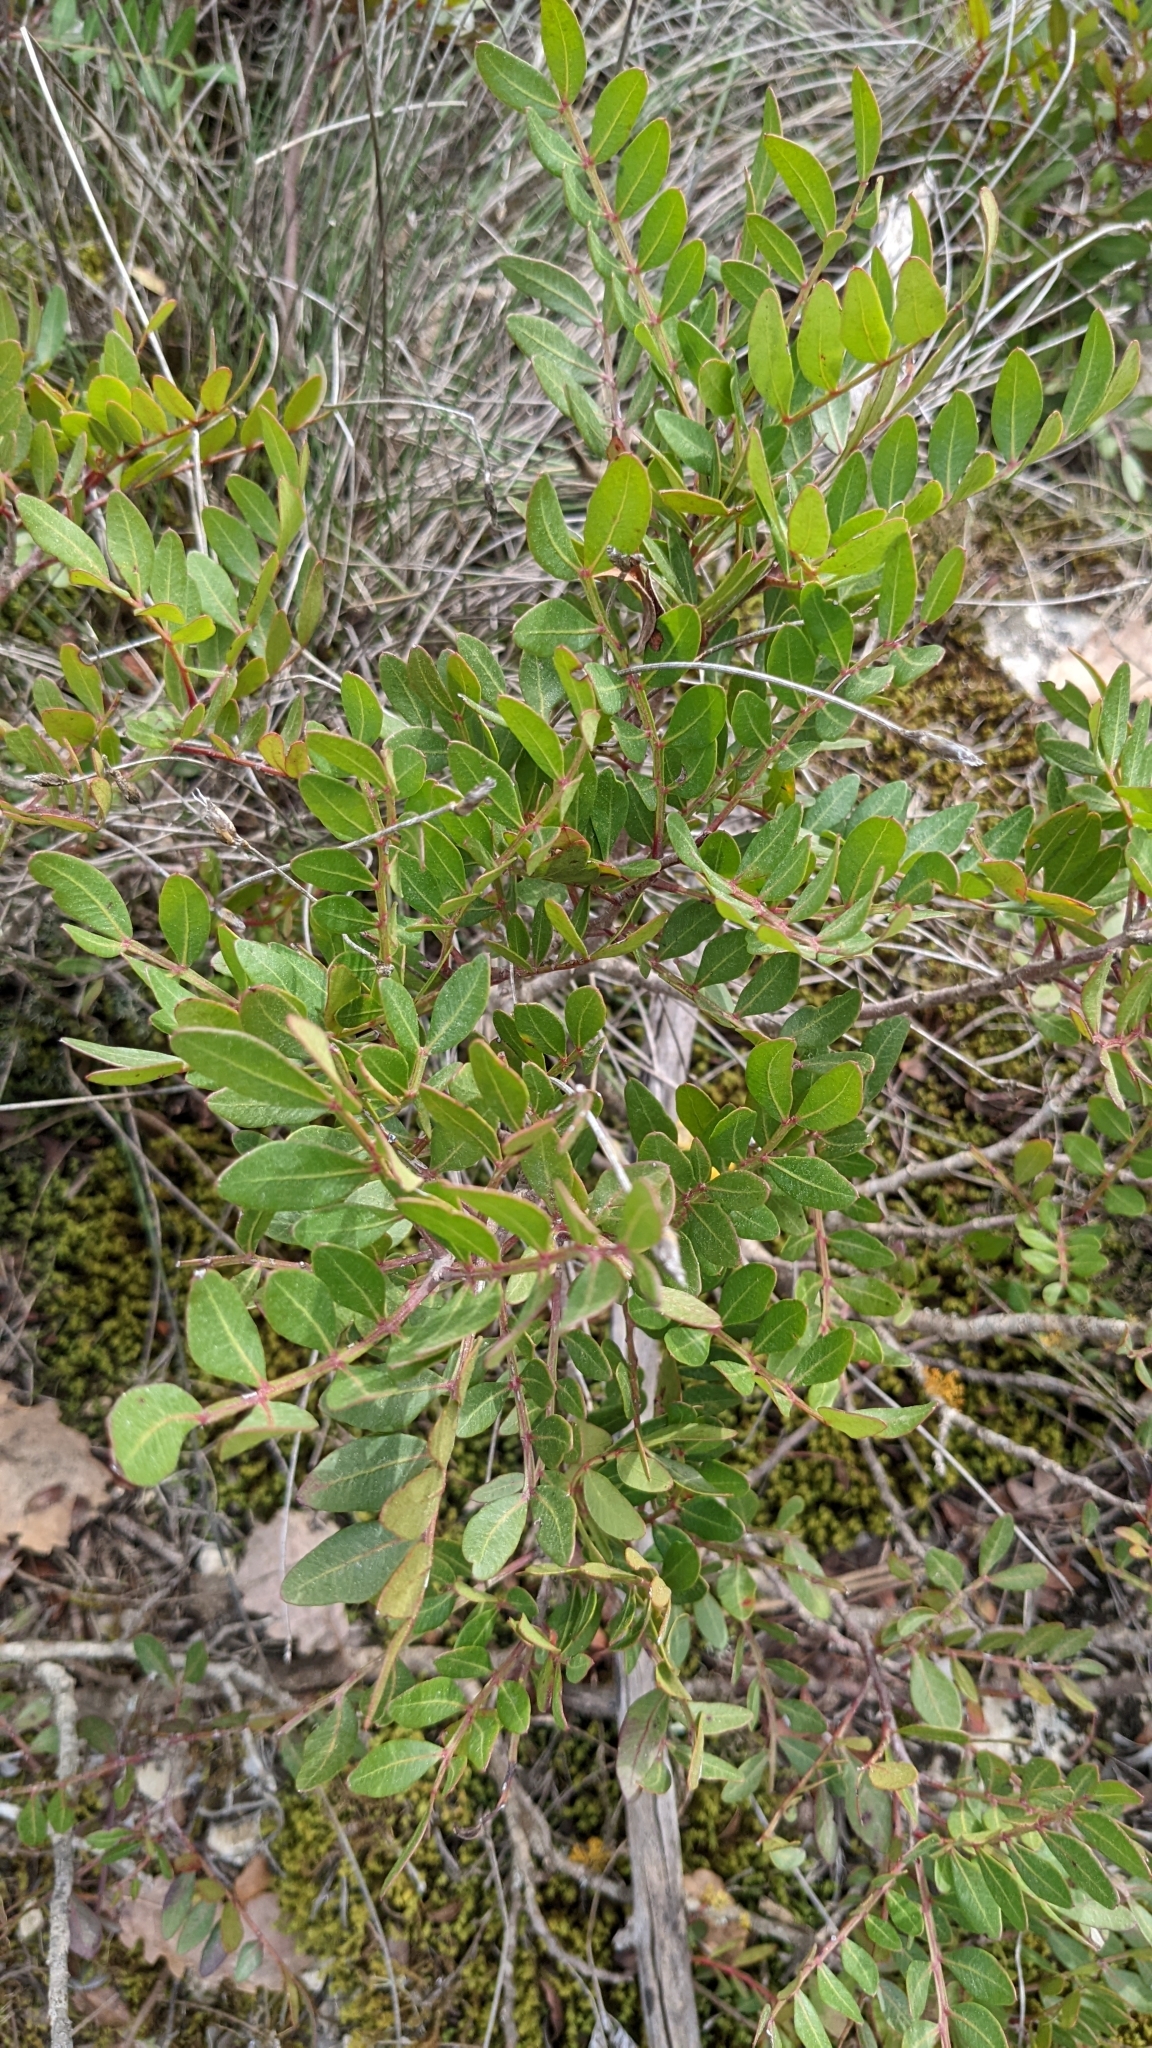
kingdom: Plantae
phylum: Tracheophyta
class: Magnoliopsida
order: Sapindales
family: Anacardiaceae
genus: Pistacia
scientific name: Pistacia lentiscus
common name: Lentisk
